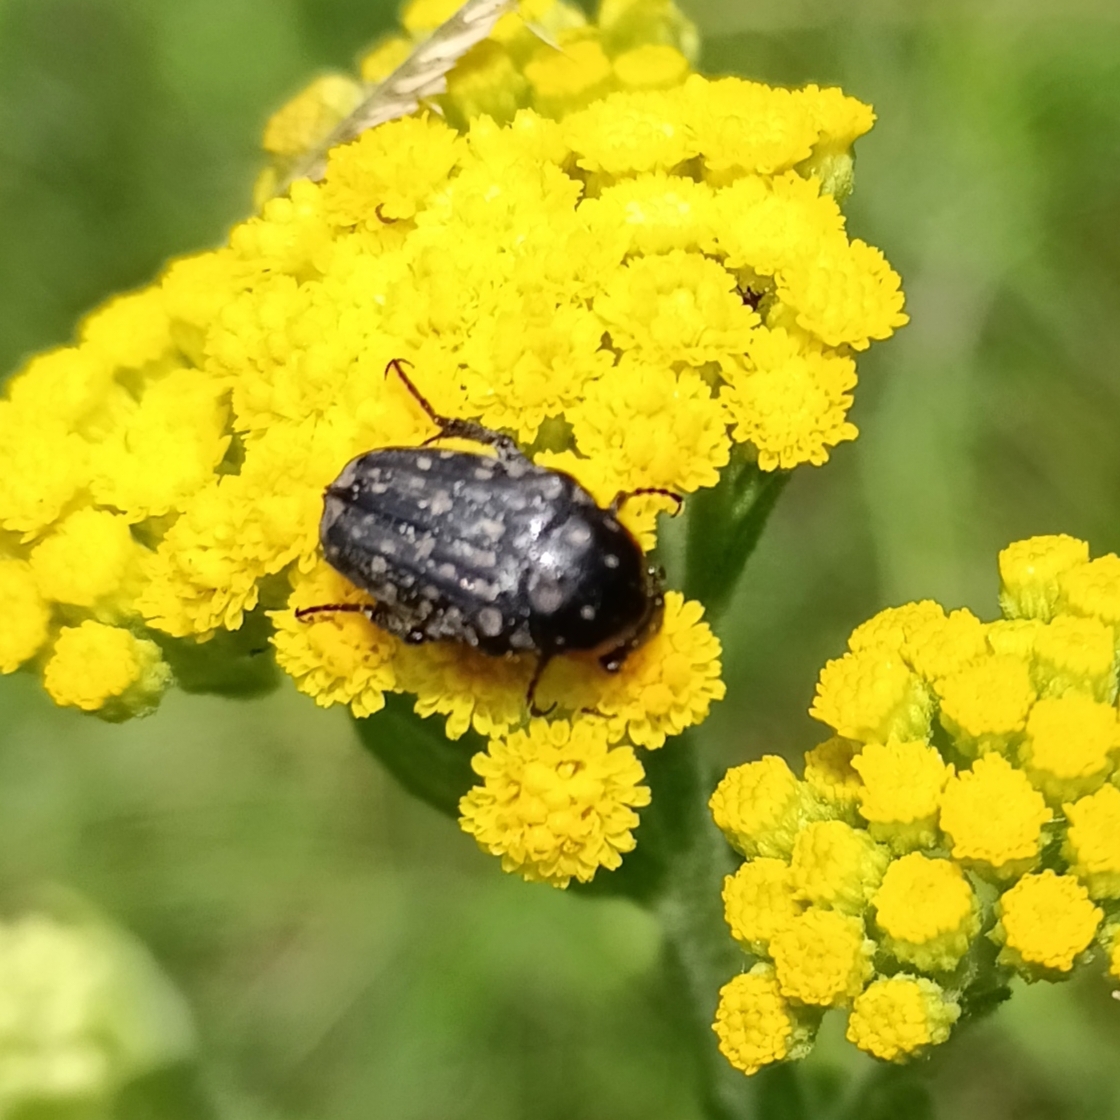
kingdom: Animalia
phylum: Arthropoda
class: Insecta
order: Coleoptera
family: Scarabaeidae
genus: Oxythyrea
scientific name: Oxythyrea
